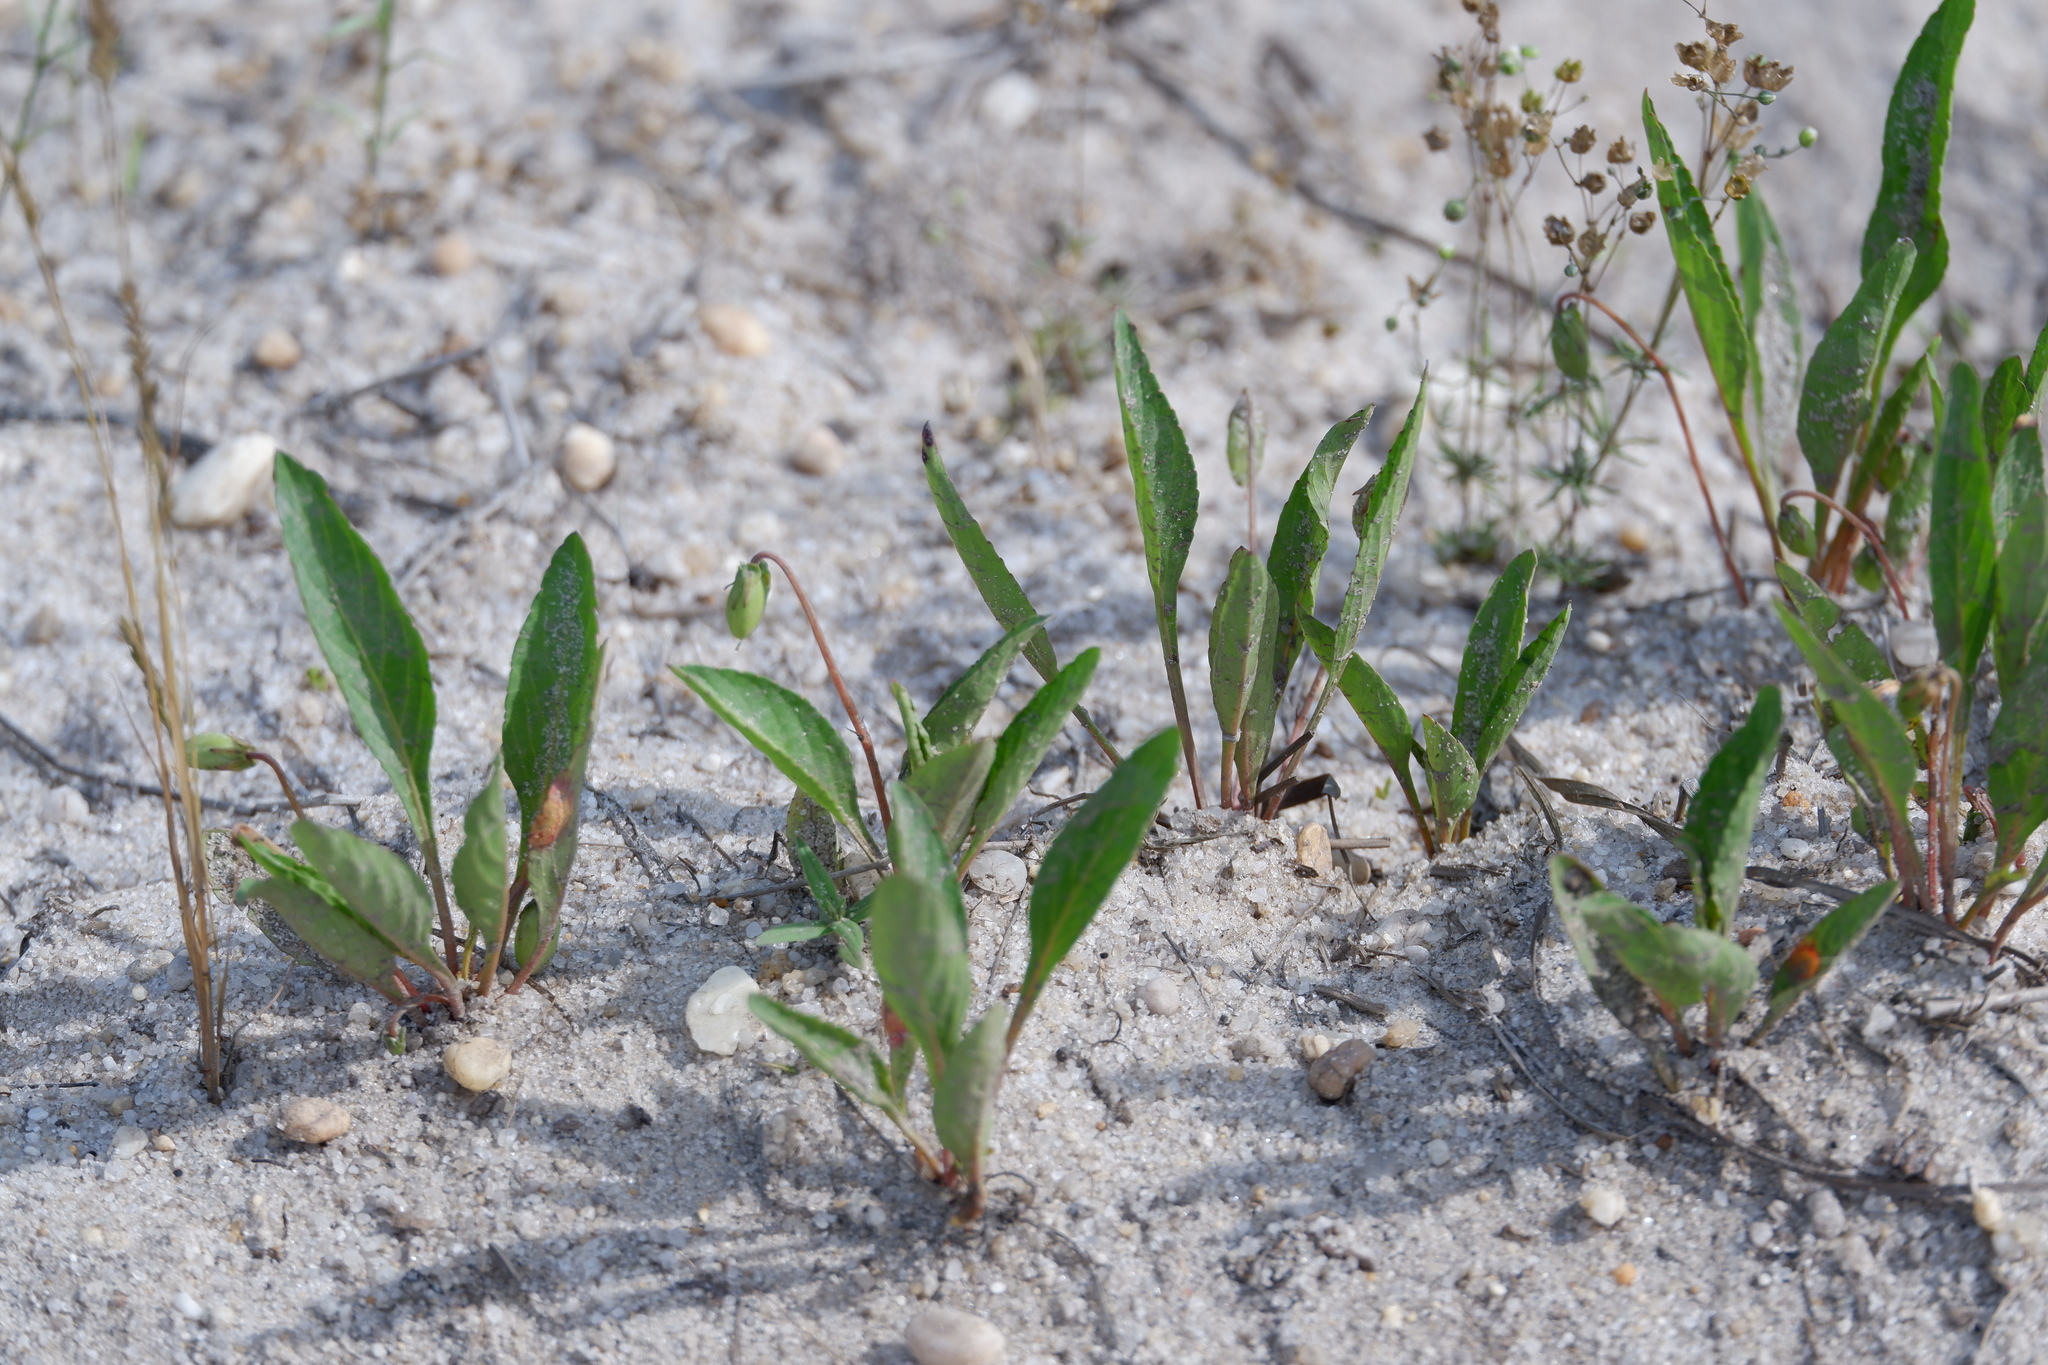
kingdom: Plantae
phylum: Tracheophyta
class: Magnoliopsida
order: Malpighiales
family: Violaceae
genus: Viola
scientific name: Viola lanceolata
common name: Bog white violet
